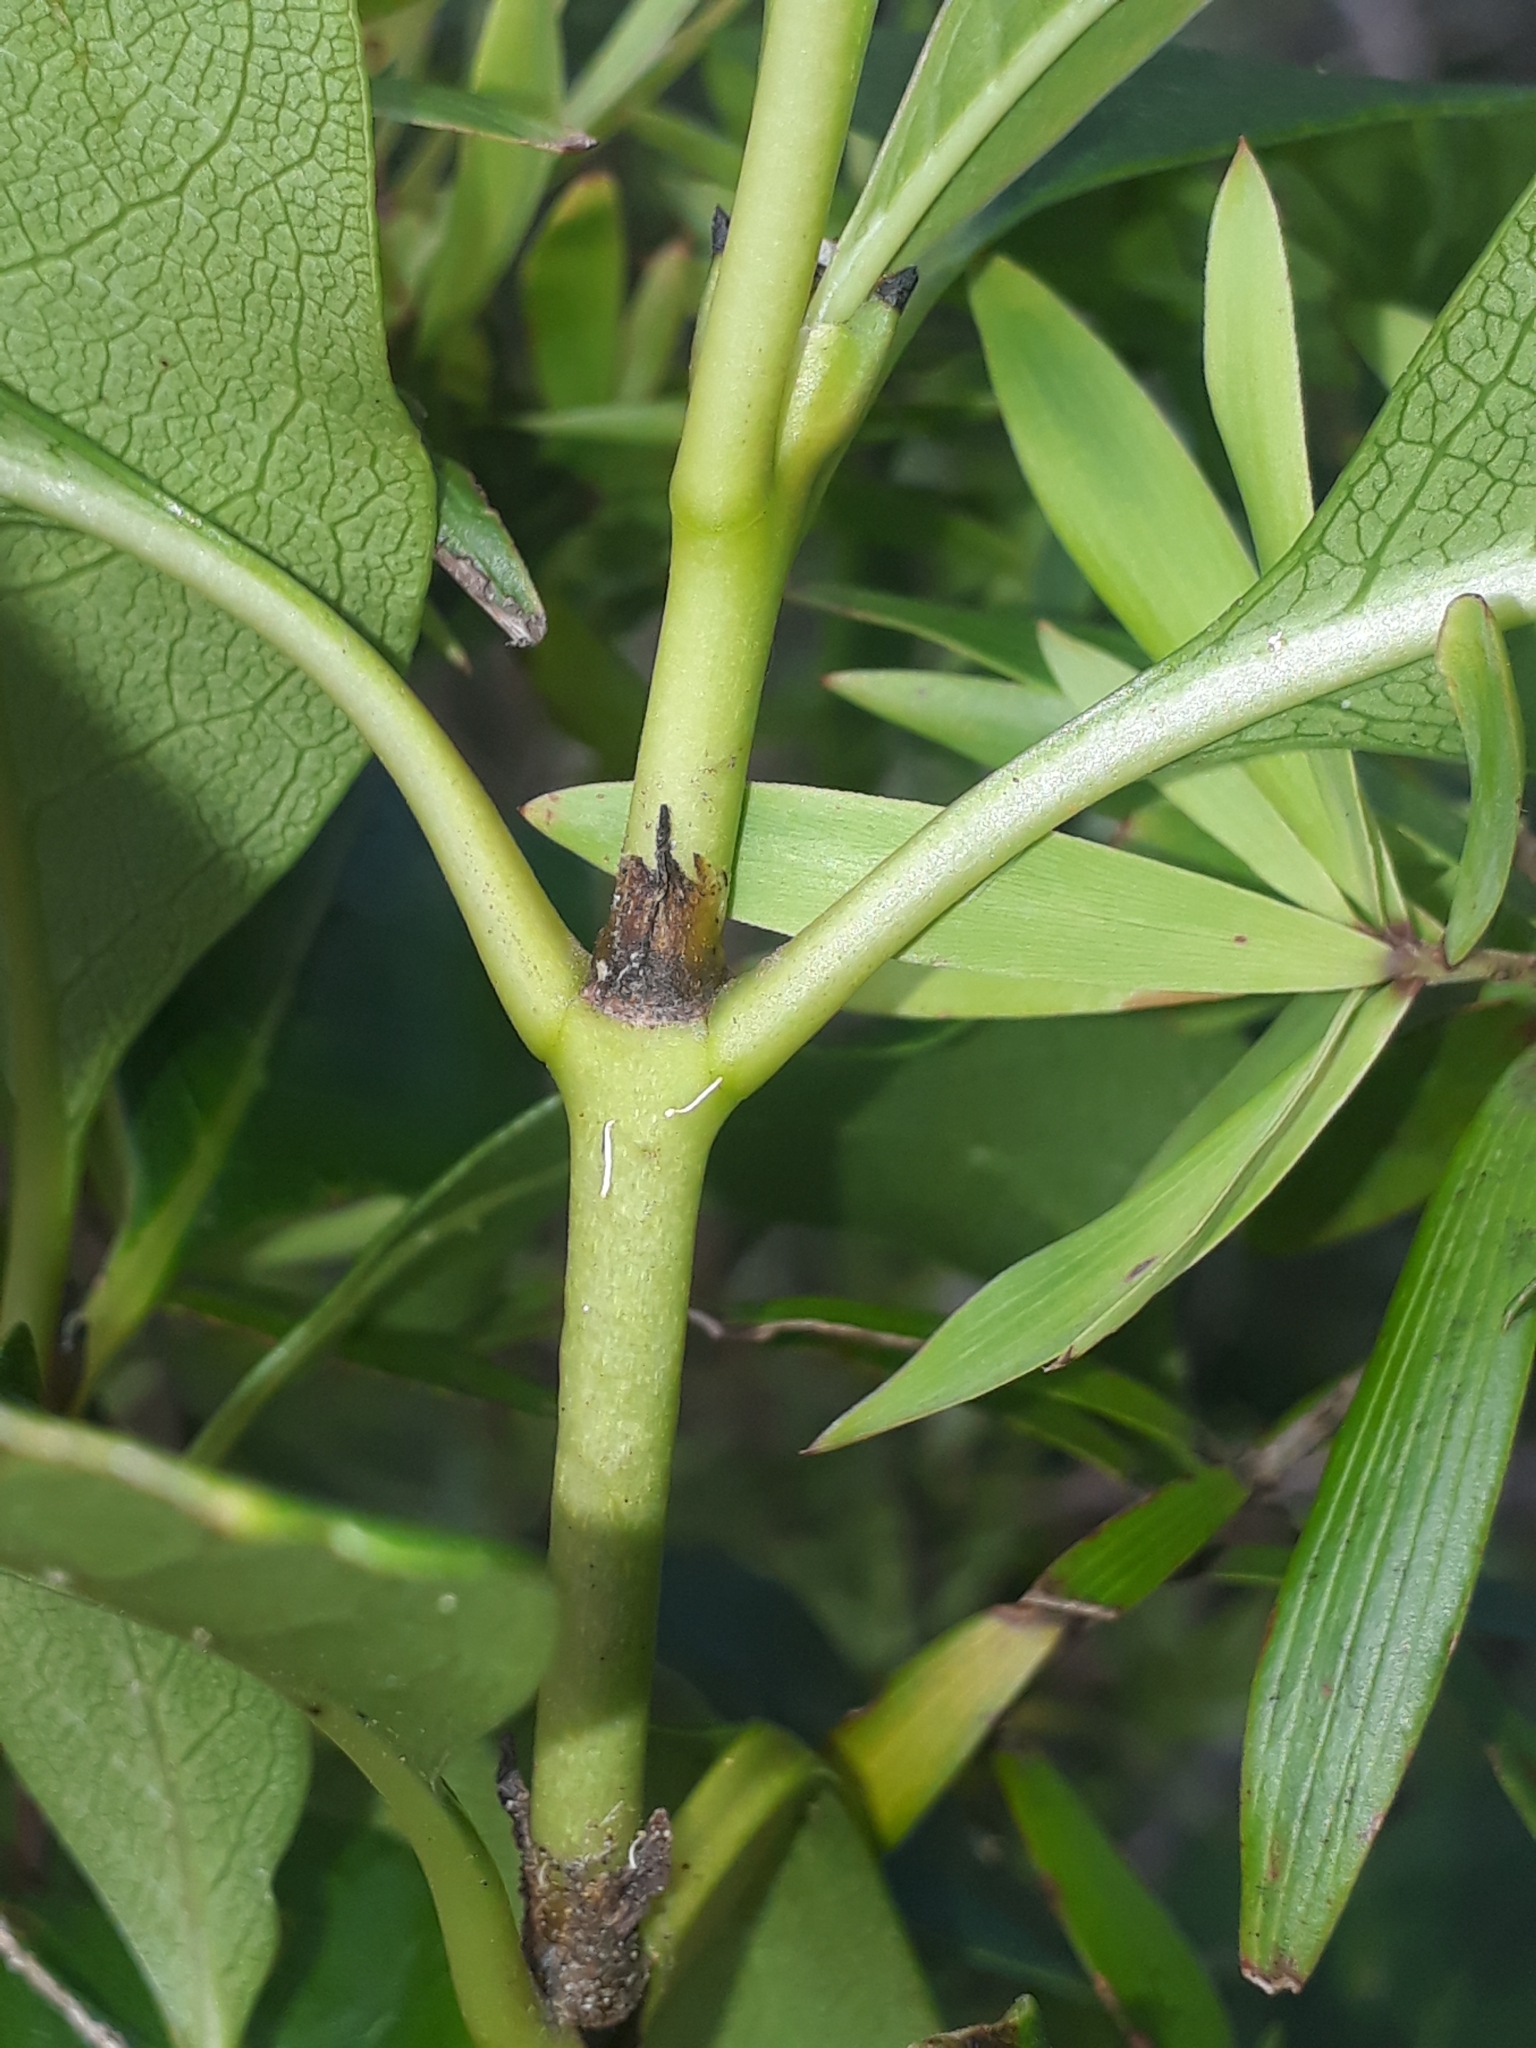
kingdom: Plantae
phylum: Tracheophyta
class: Magnoliopsida
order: Gentianales
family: Rubiaceae
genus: Coprosma
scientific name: Coprosma macrocarpa
